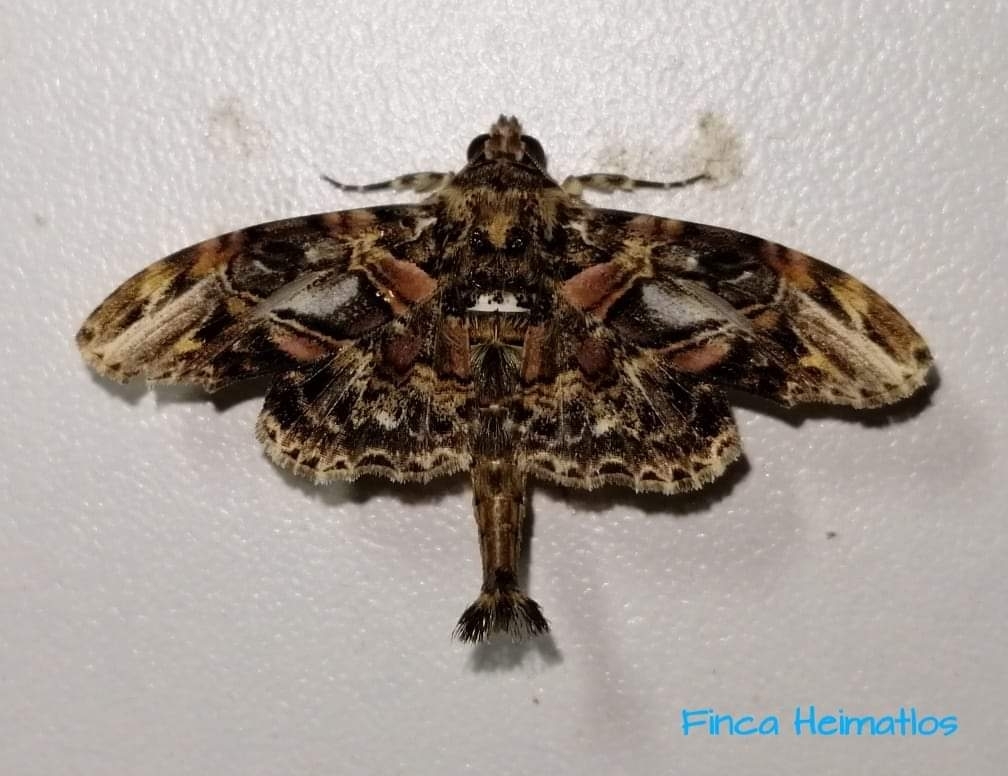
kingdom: Animalia
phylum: Arthropoda
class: Insecta
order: Lepidoptera
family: Erebidae
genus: Dolichosomastis
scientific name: Dolichosomastis hermieri
